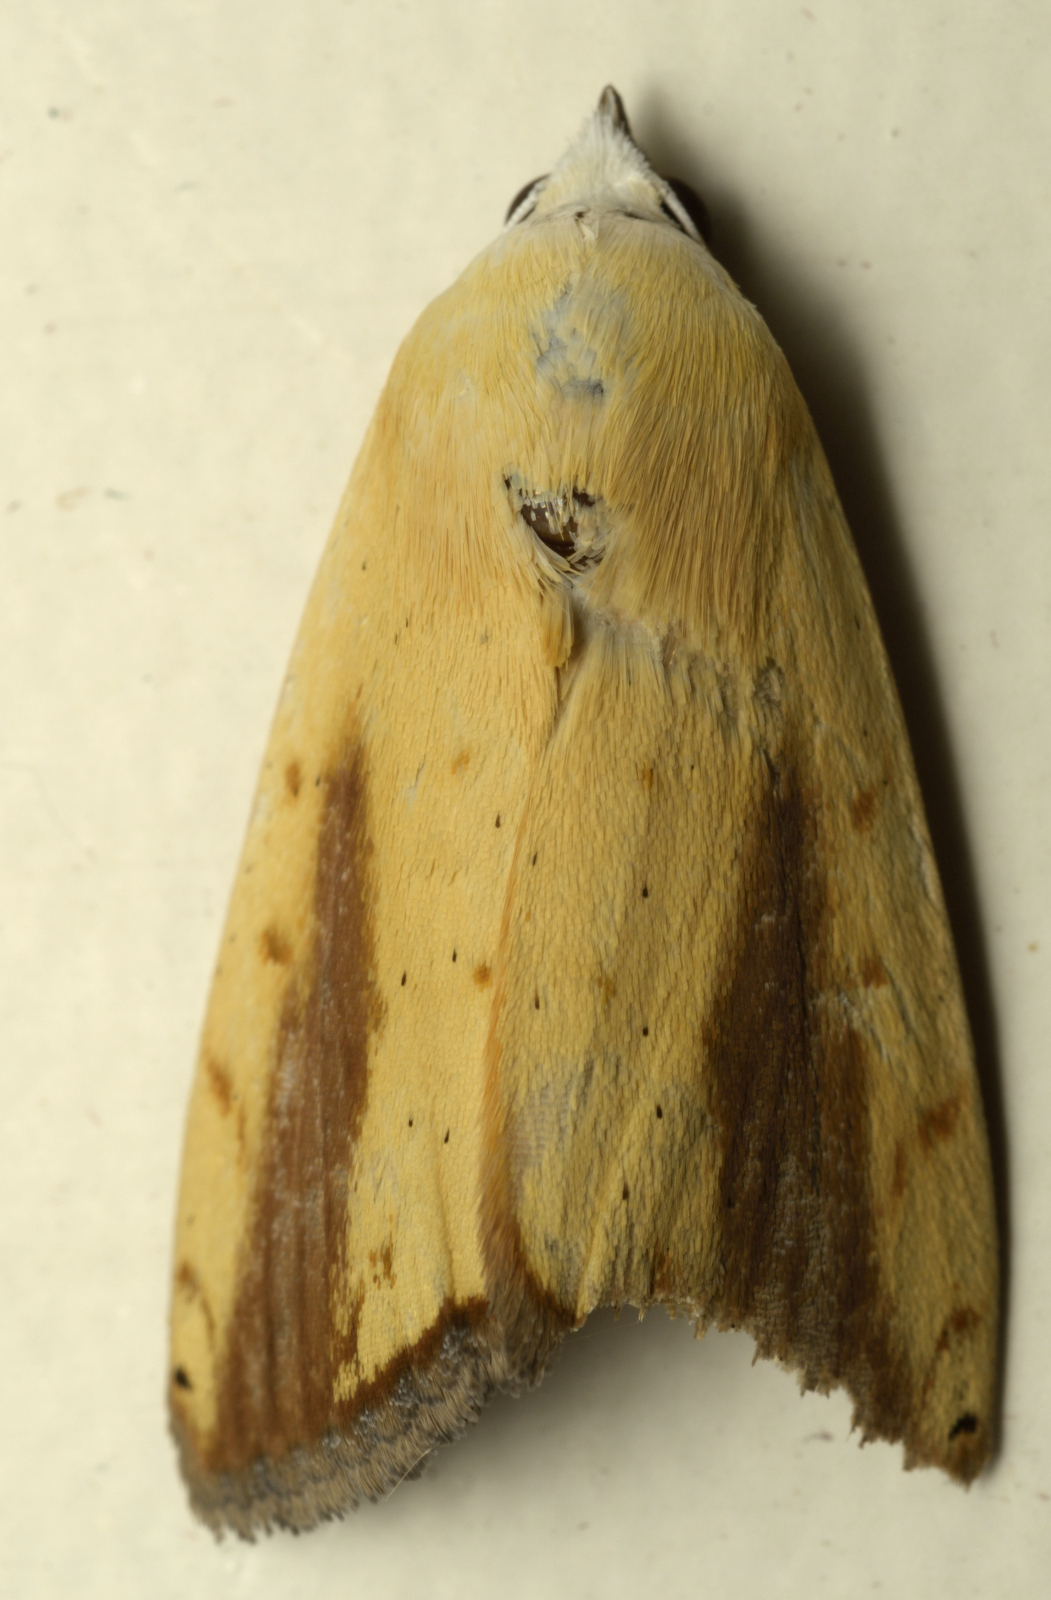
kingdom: Animalia
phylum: Arthropoda
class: Insecta
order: Lepidoptera
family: Nolidae
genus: Xanthodes
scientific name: Xanthodes intersepta
